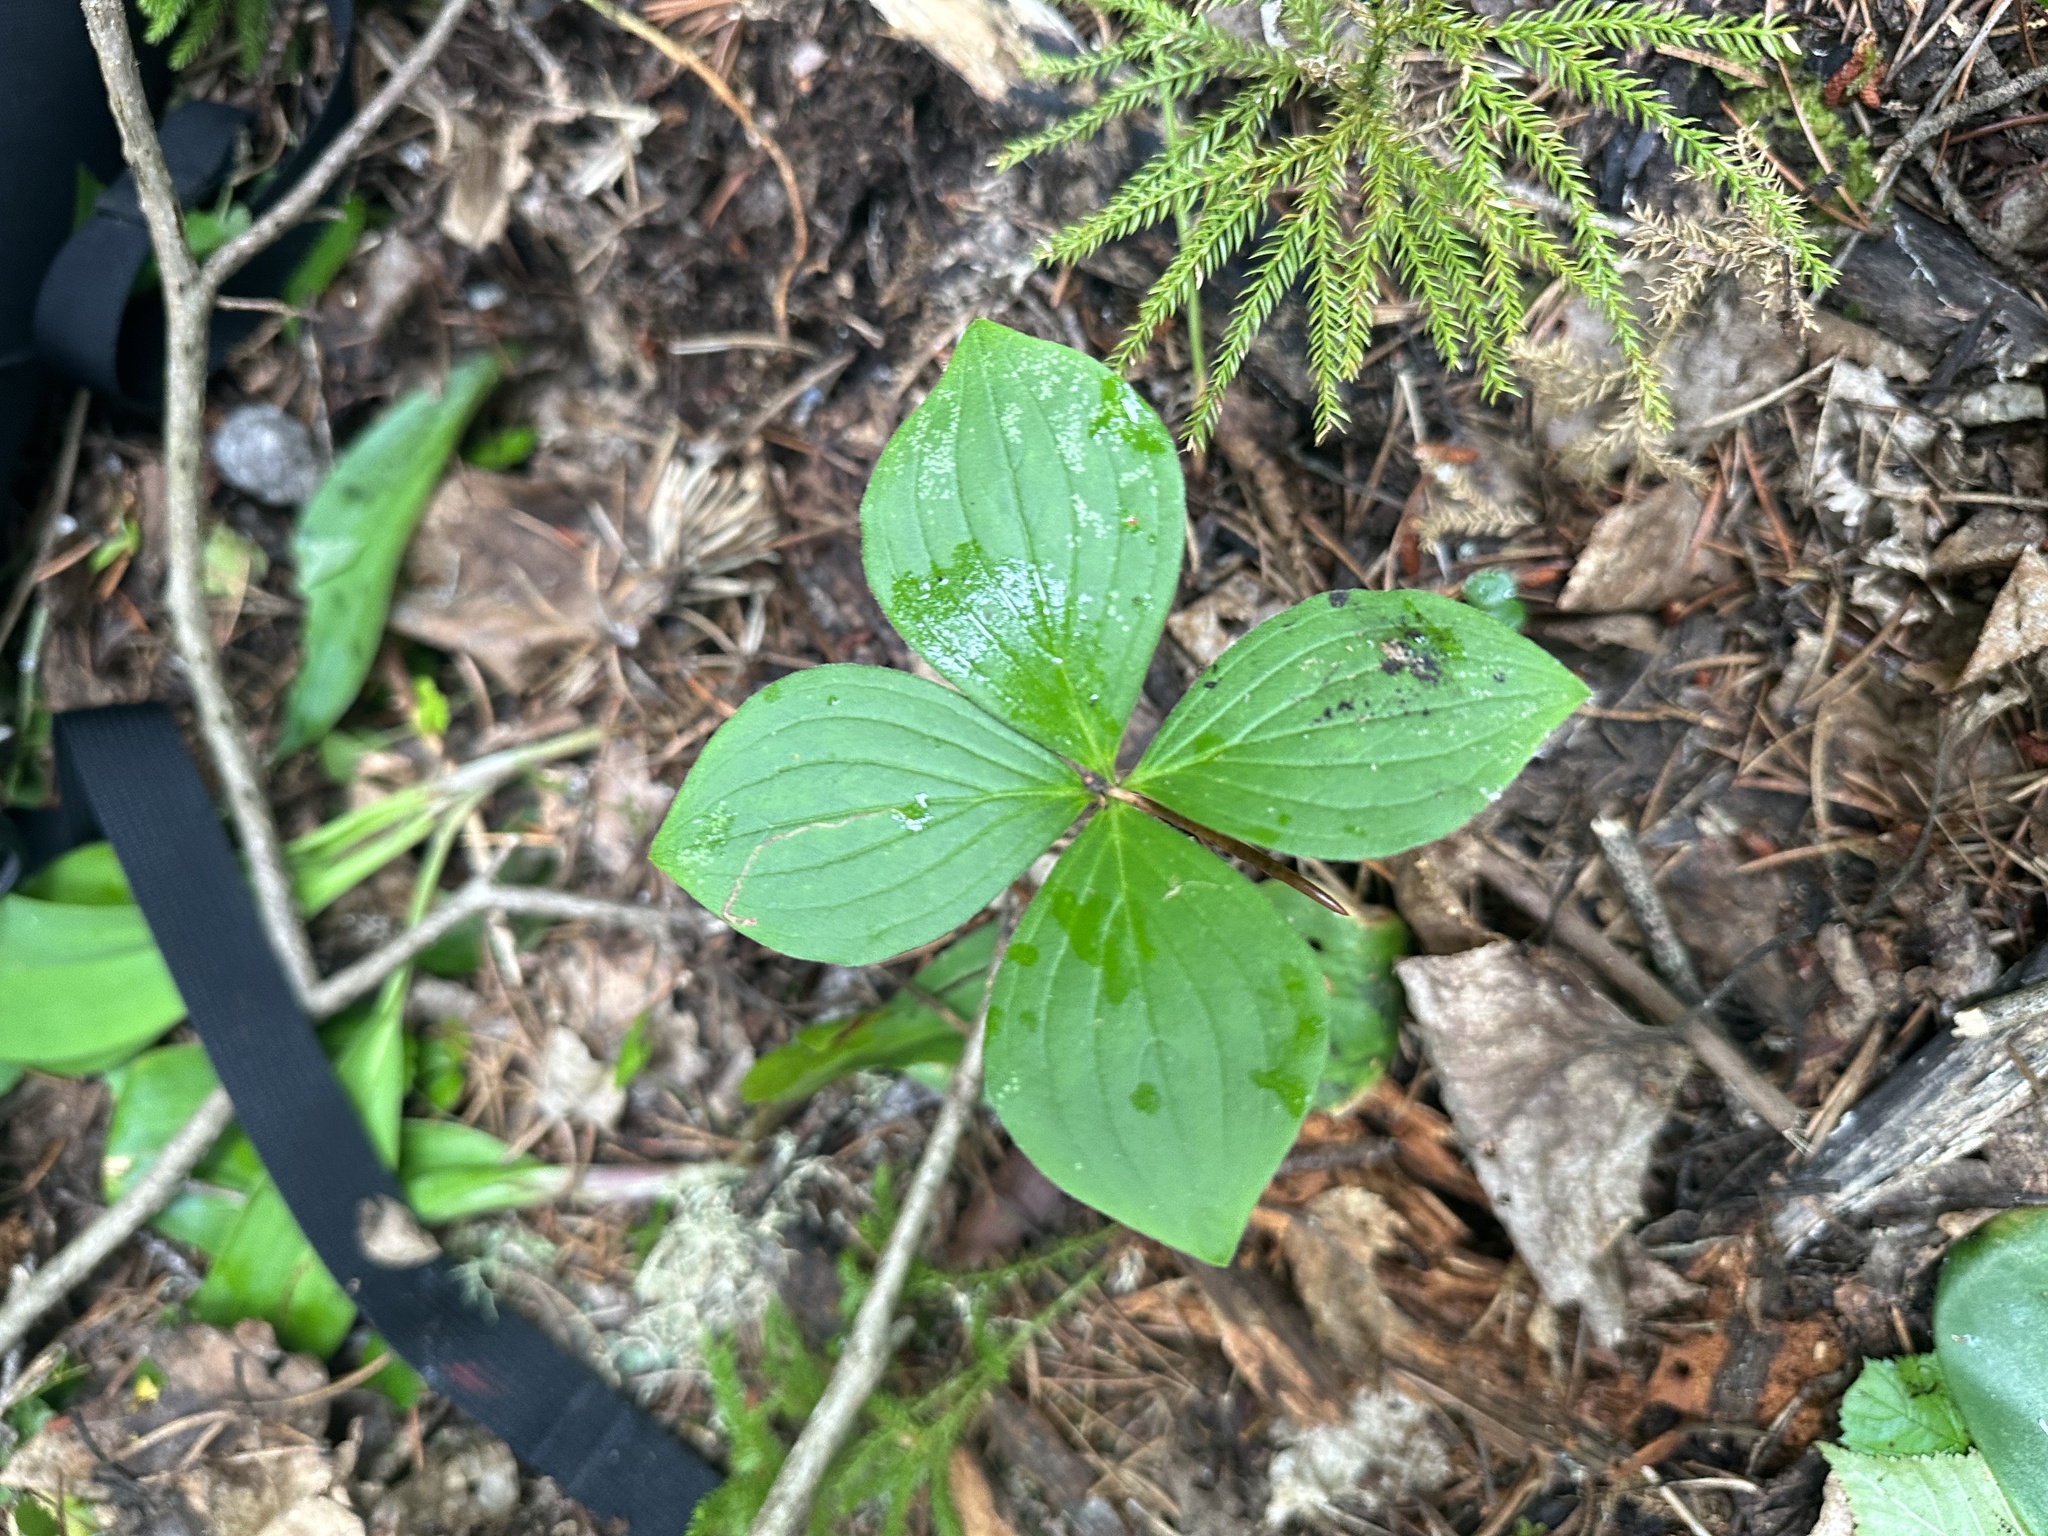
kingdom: Plantae
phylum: Tracheophyta
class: Magnoliopsida
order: Cornales
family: Cornaceae
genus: Cornus
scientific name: Cornus canadensis
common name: Creeping dogwood
